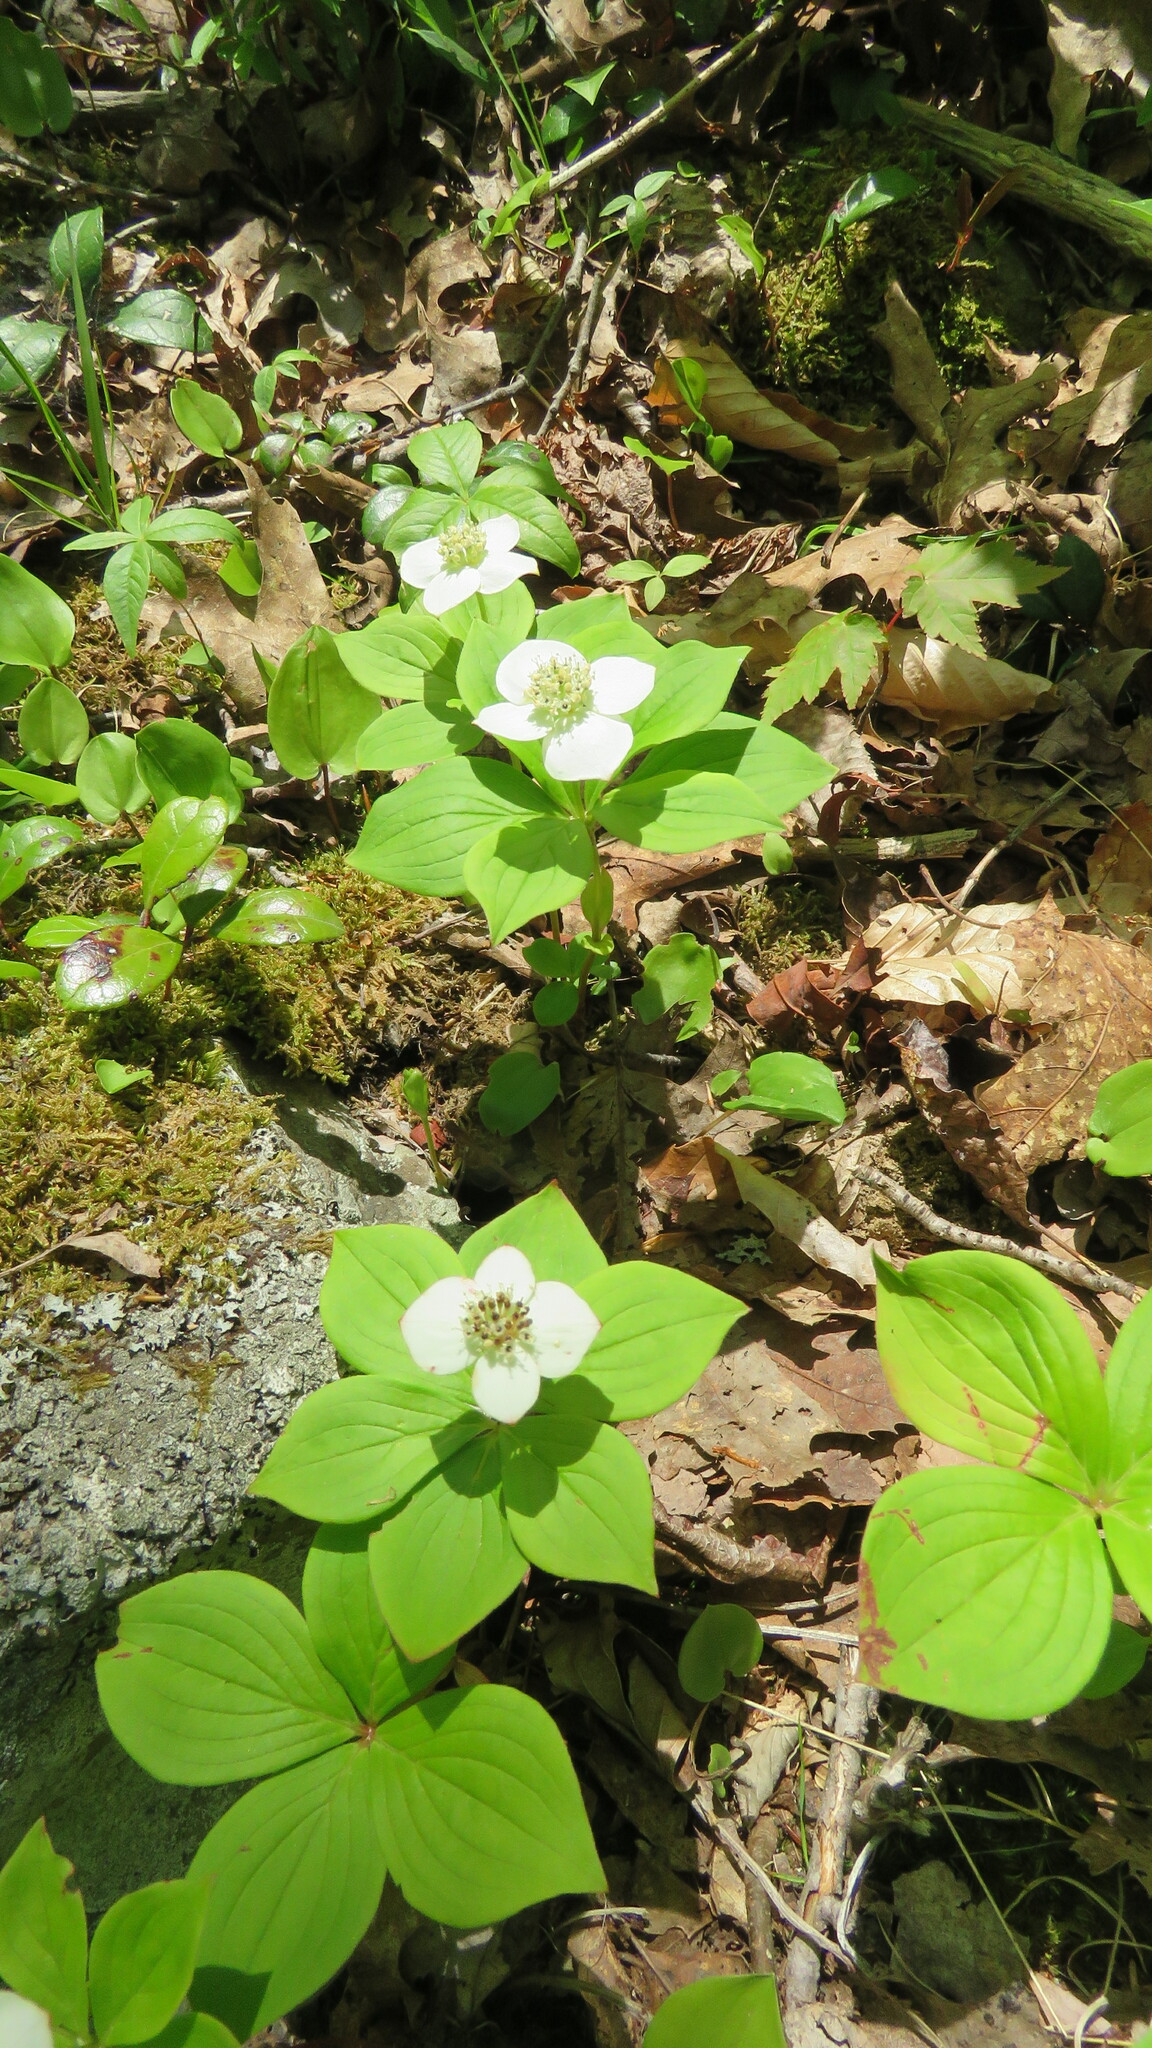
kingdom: Plantae
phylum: Tracheophyta
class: Magnoliopsida
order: Cornales
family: Cornaceae
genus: Cornus
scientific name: Cornus canadensis
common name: Creeping dogwood
